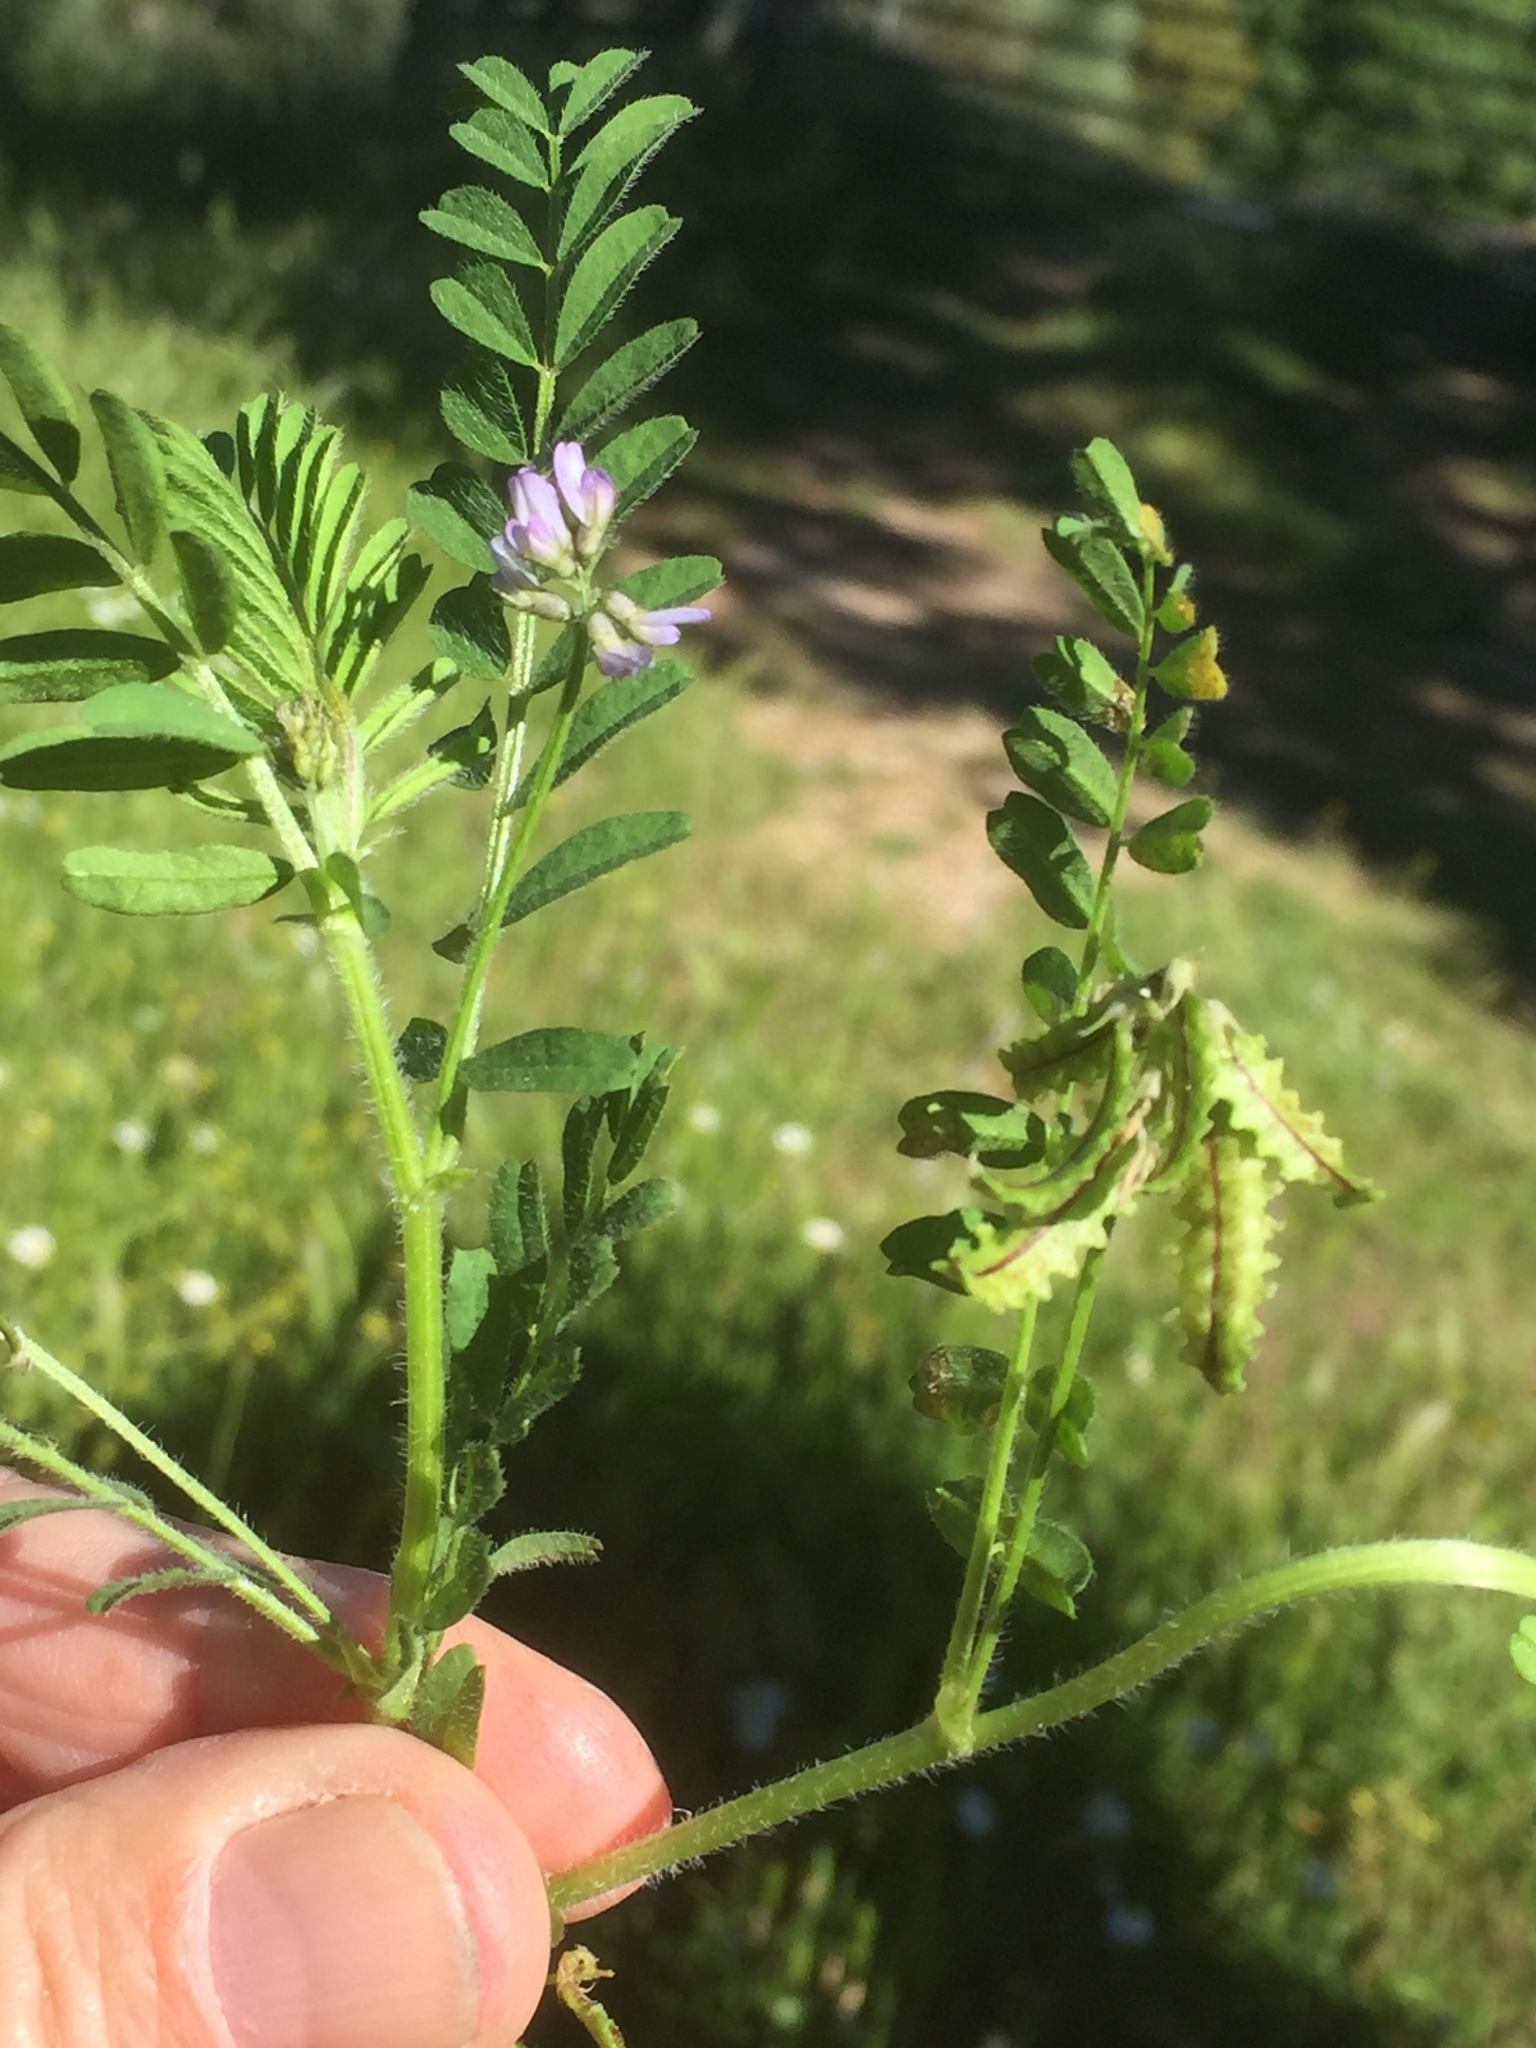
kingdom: Plantae
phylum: Tracheophyta
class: Magnoliopsida
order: Fabales
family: Fabaceae
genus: Biserrula
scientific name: Biserrula pelecinus
